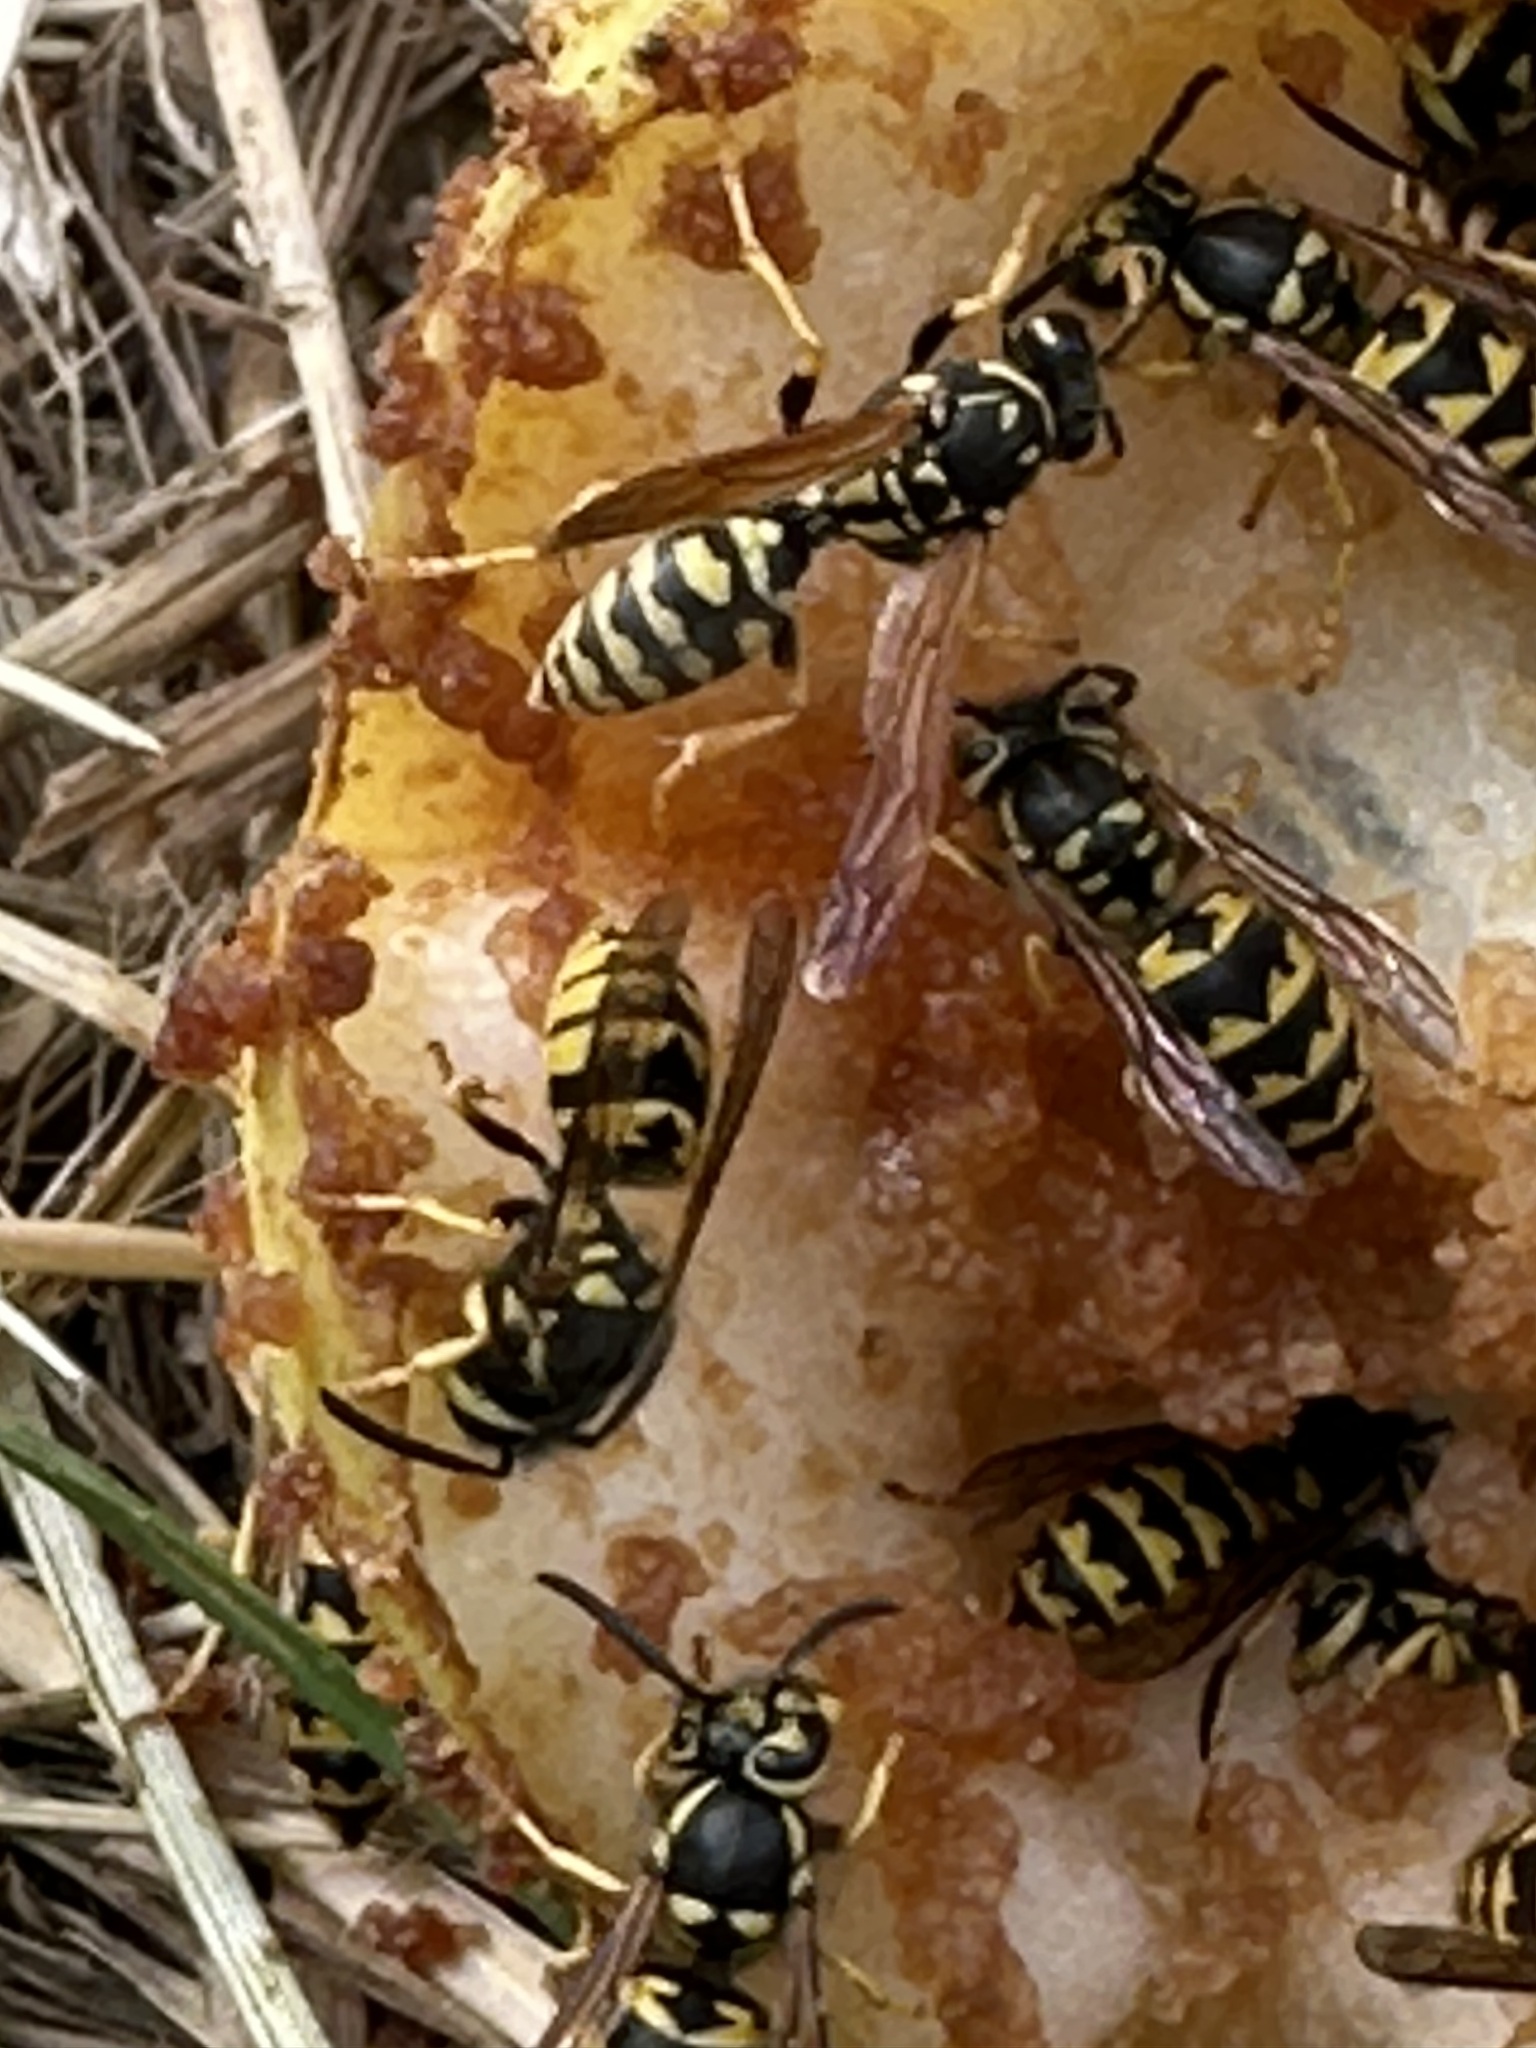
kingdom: Animalia
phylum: Arthropoda
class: Insecta
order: Hymenoptera
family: Vespidae
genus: Vespula
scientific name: Vespula pensylvanica
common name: Western yellowjacket
